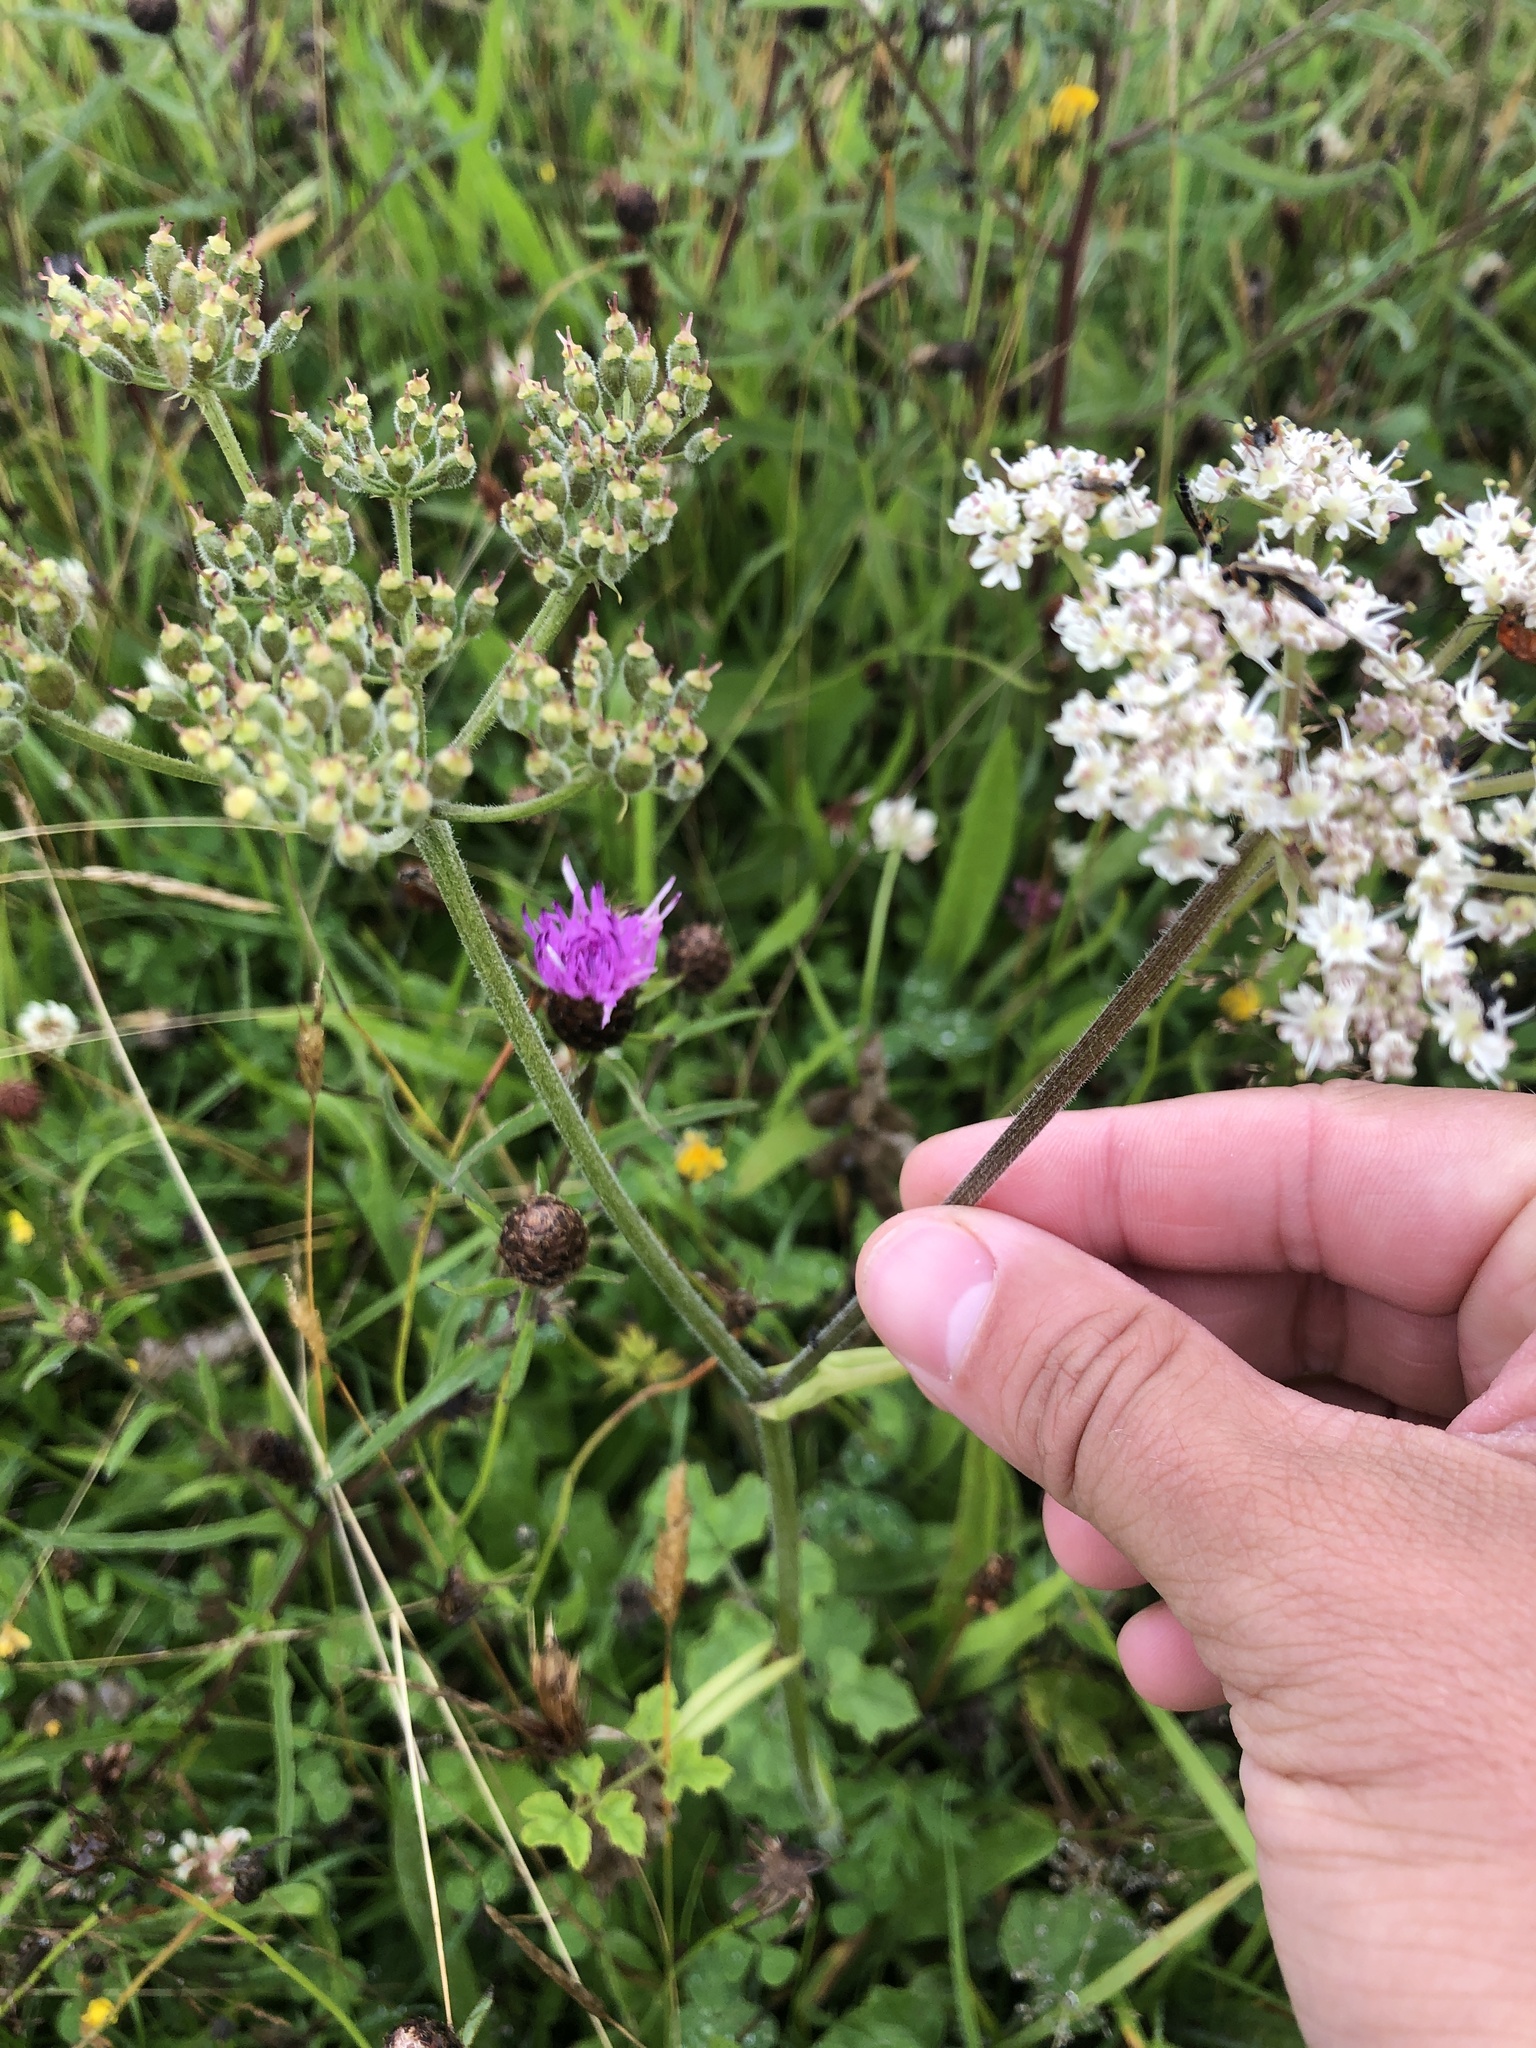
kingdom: Plantae
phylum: Tracheophyta
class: Magnoliopsida
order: Apiales
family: Apiaceae
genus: Heracleum
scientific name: Heracleum sphondylium
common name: Hogweed
